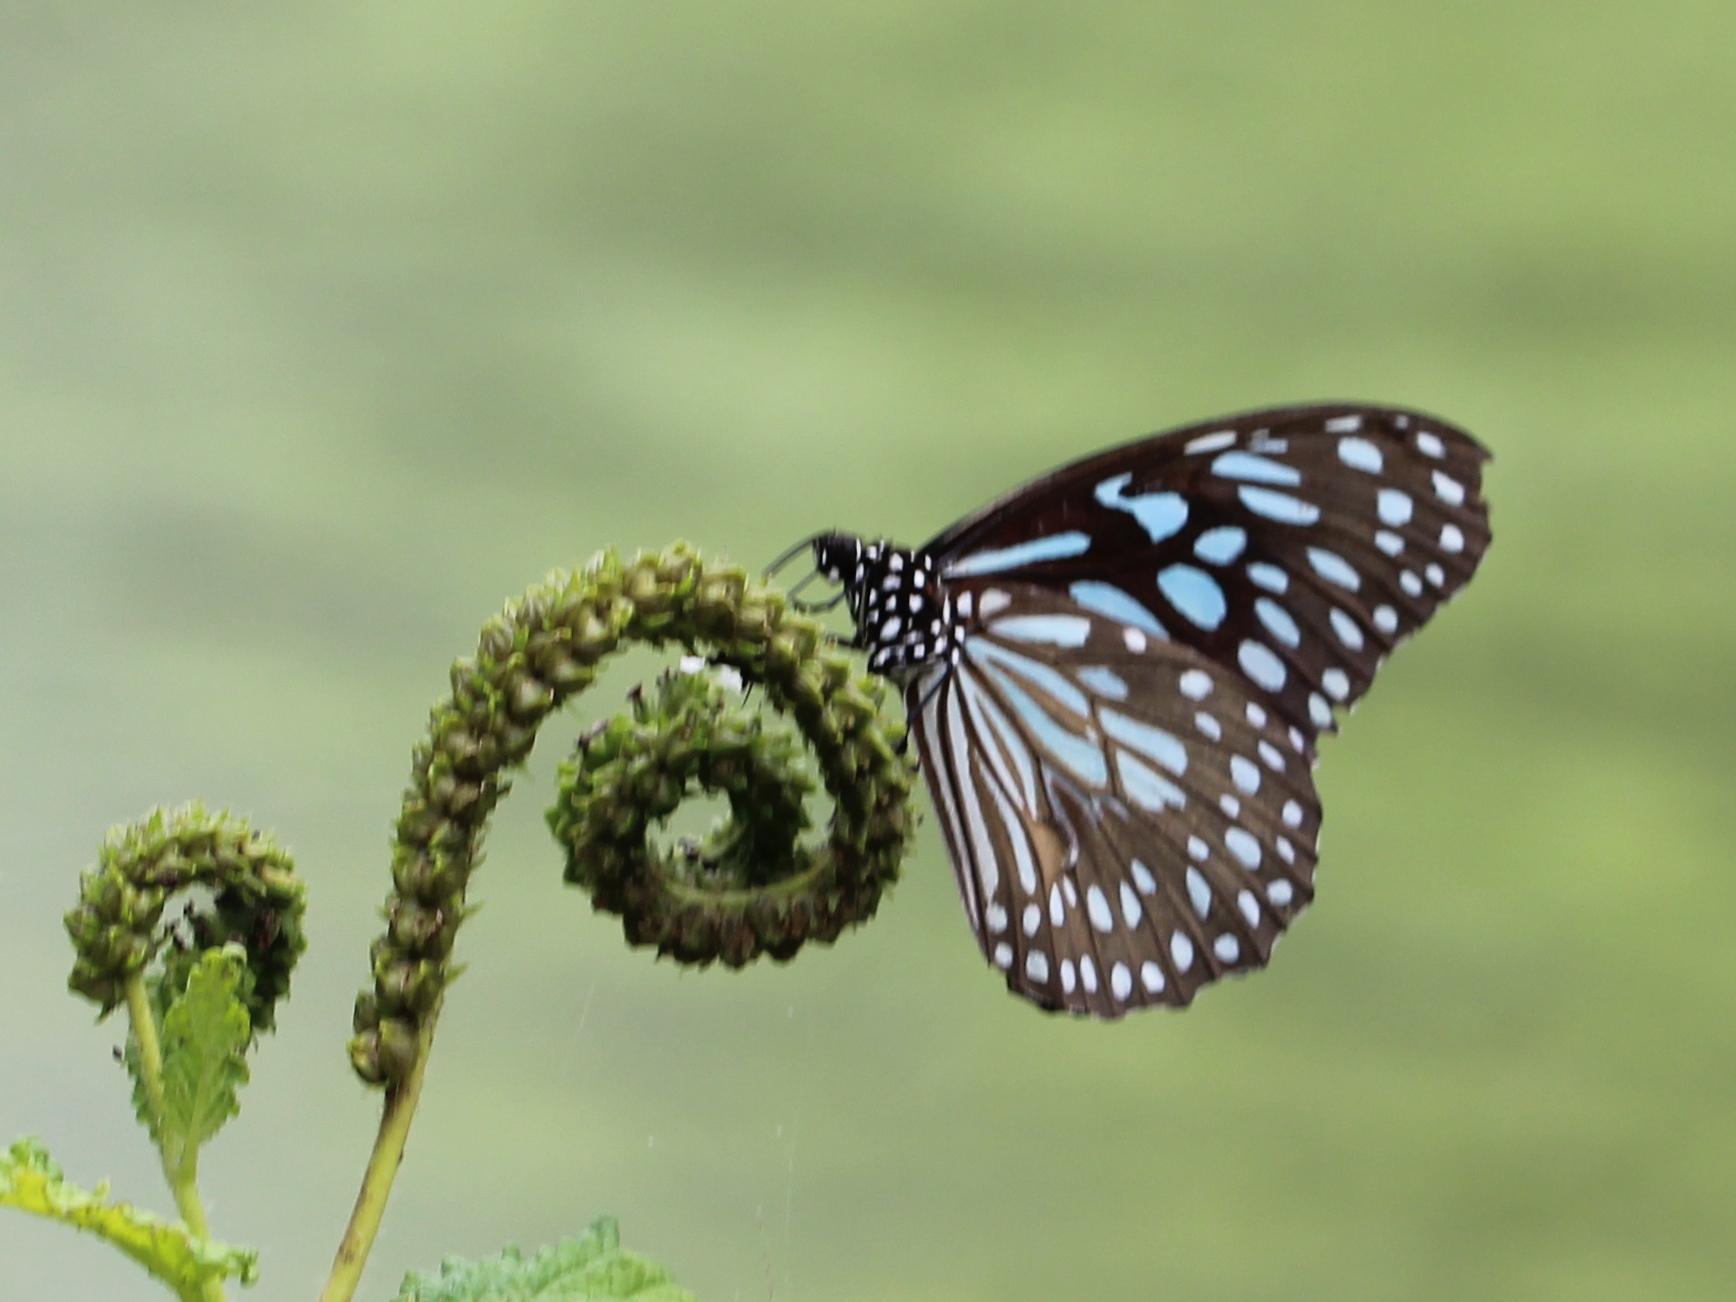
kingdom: Animalia
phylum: Arthropoda
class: Insecta
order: Lepidoptera
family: Nymphalidae
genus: Tirumala
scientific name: Tirumala septentrionis
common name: Dark blue tiger butterfly
